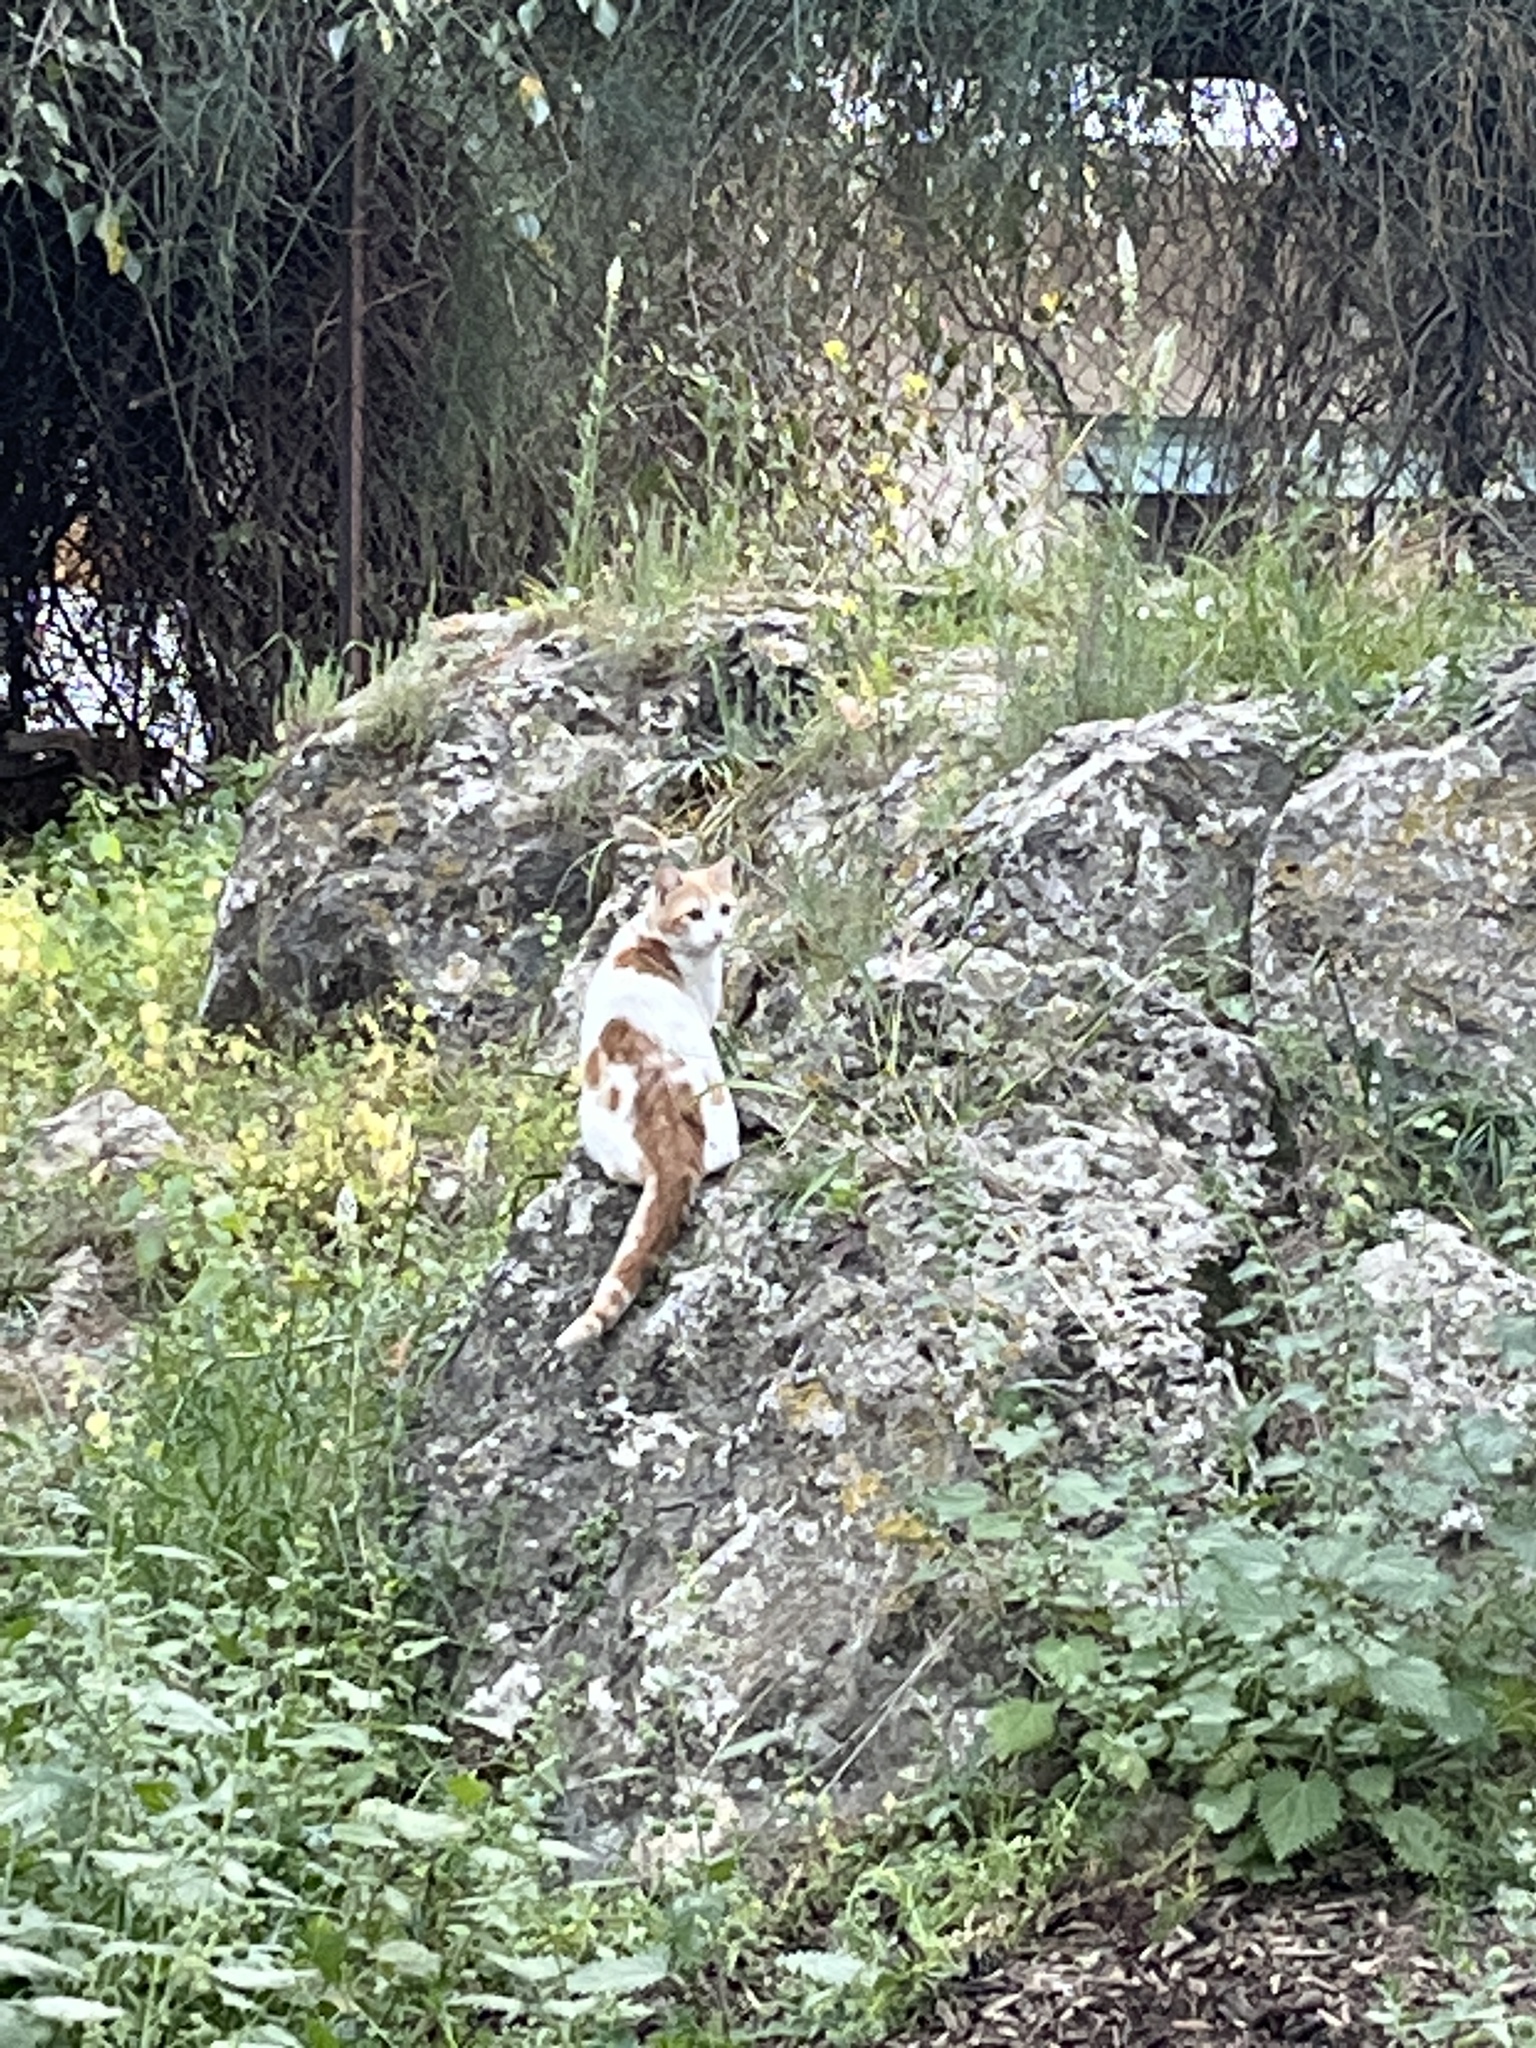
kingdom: Animalia
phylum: Chordata
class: Mammalia
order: Carnivora
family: Felidae
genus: Felis
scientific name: Felis catus
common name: Domestic cat
